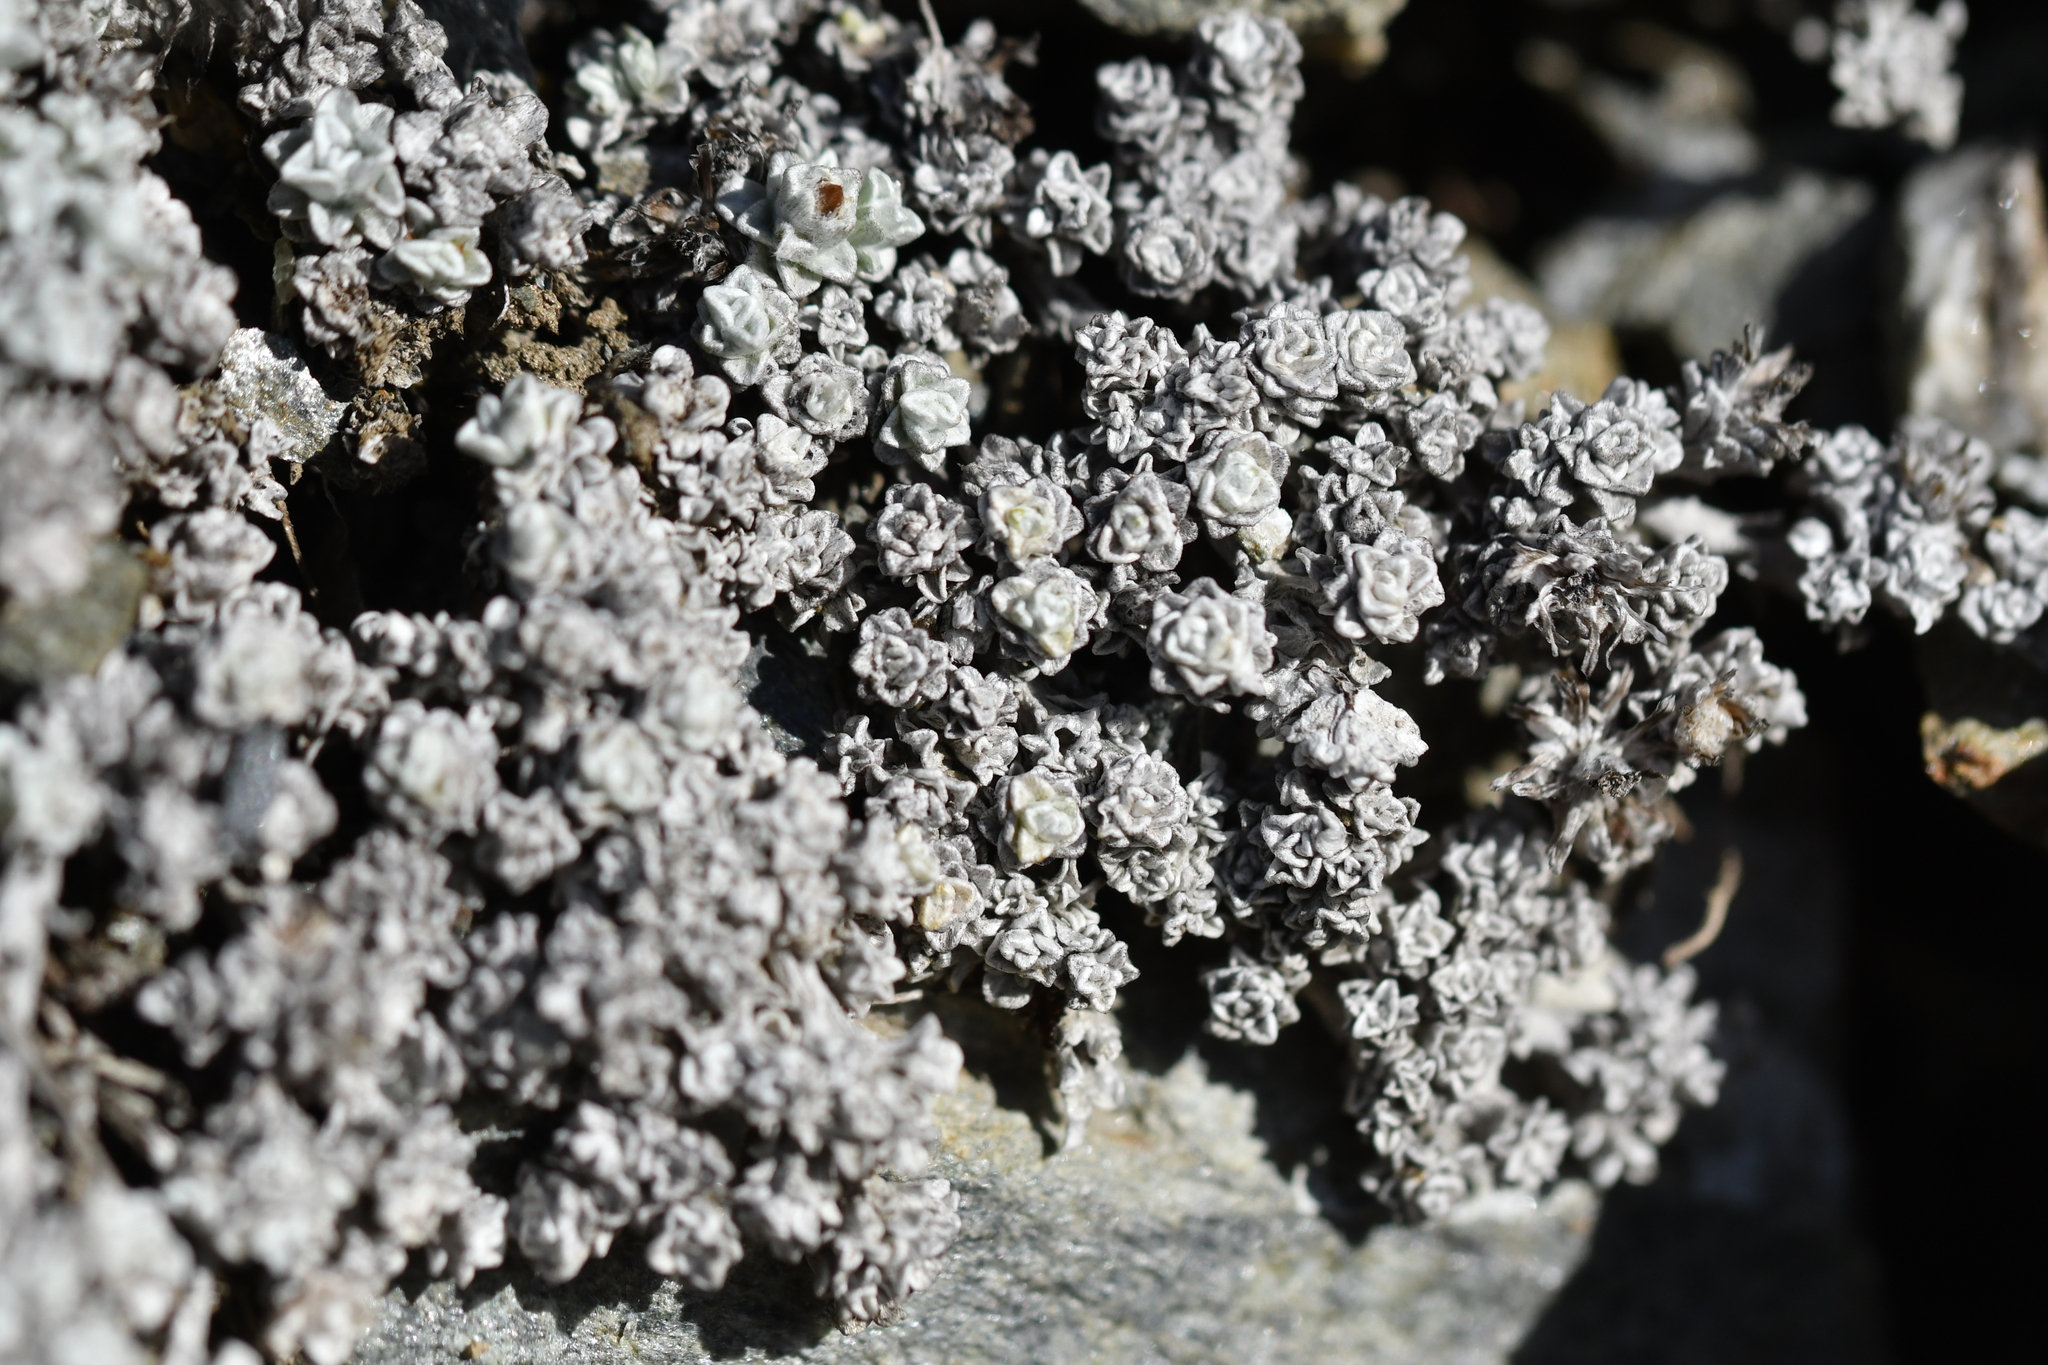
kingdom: Plantae
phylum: Tracheophyta
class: Magnoliopsida
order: Asterales
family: Asteraceae
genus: Raoulia
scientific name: Raoulia apicinigra
